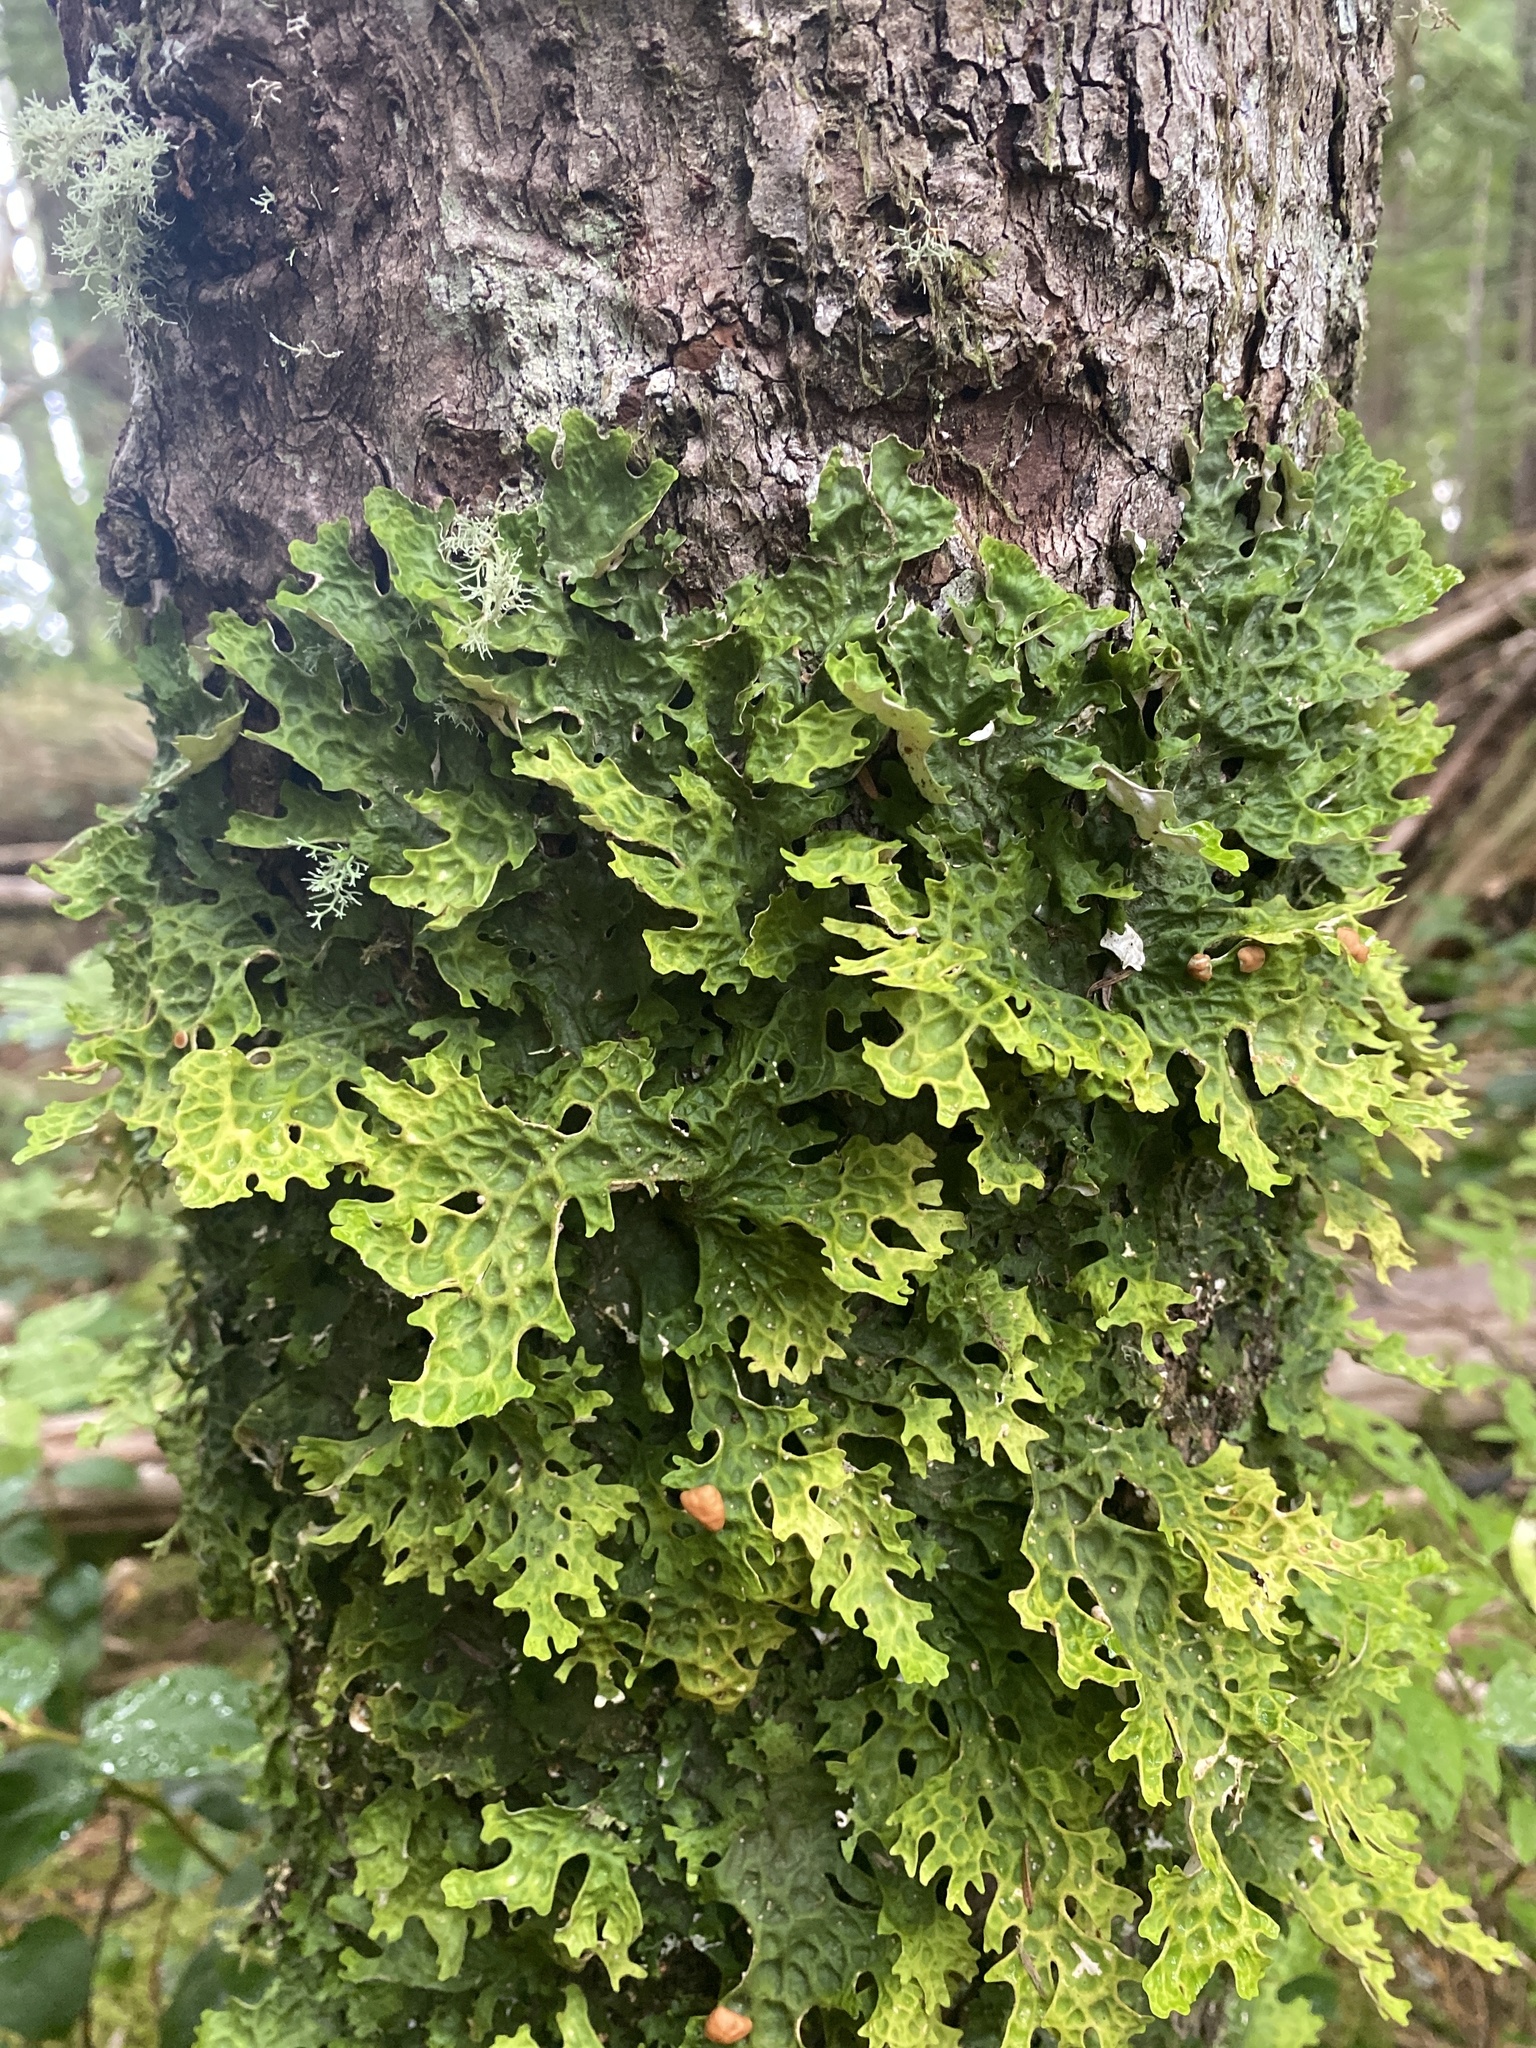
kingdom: Fungi
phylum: Ascomycota
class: Lecanoromycetes
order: Peltigerales
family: Lobariaceae
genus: Lobaria
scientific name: Lobaria pulmonaria
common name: Lungwort
